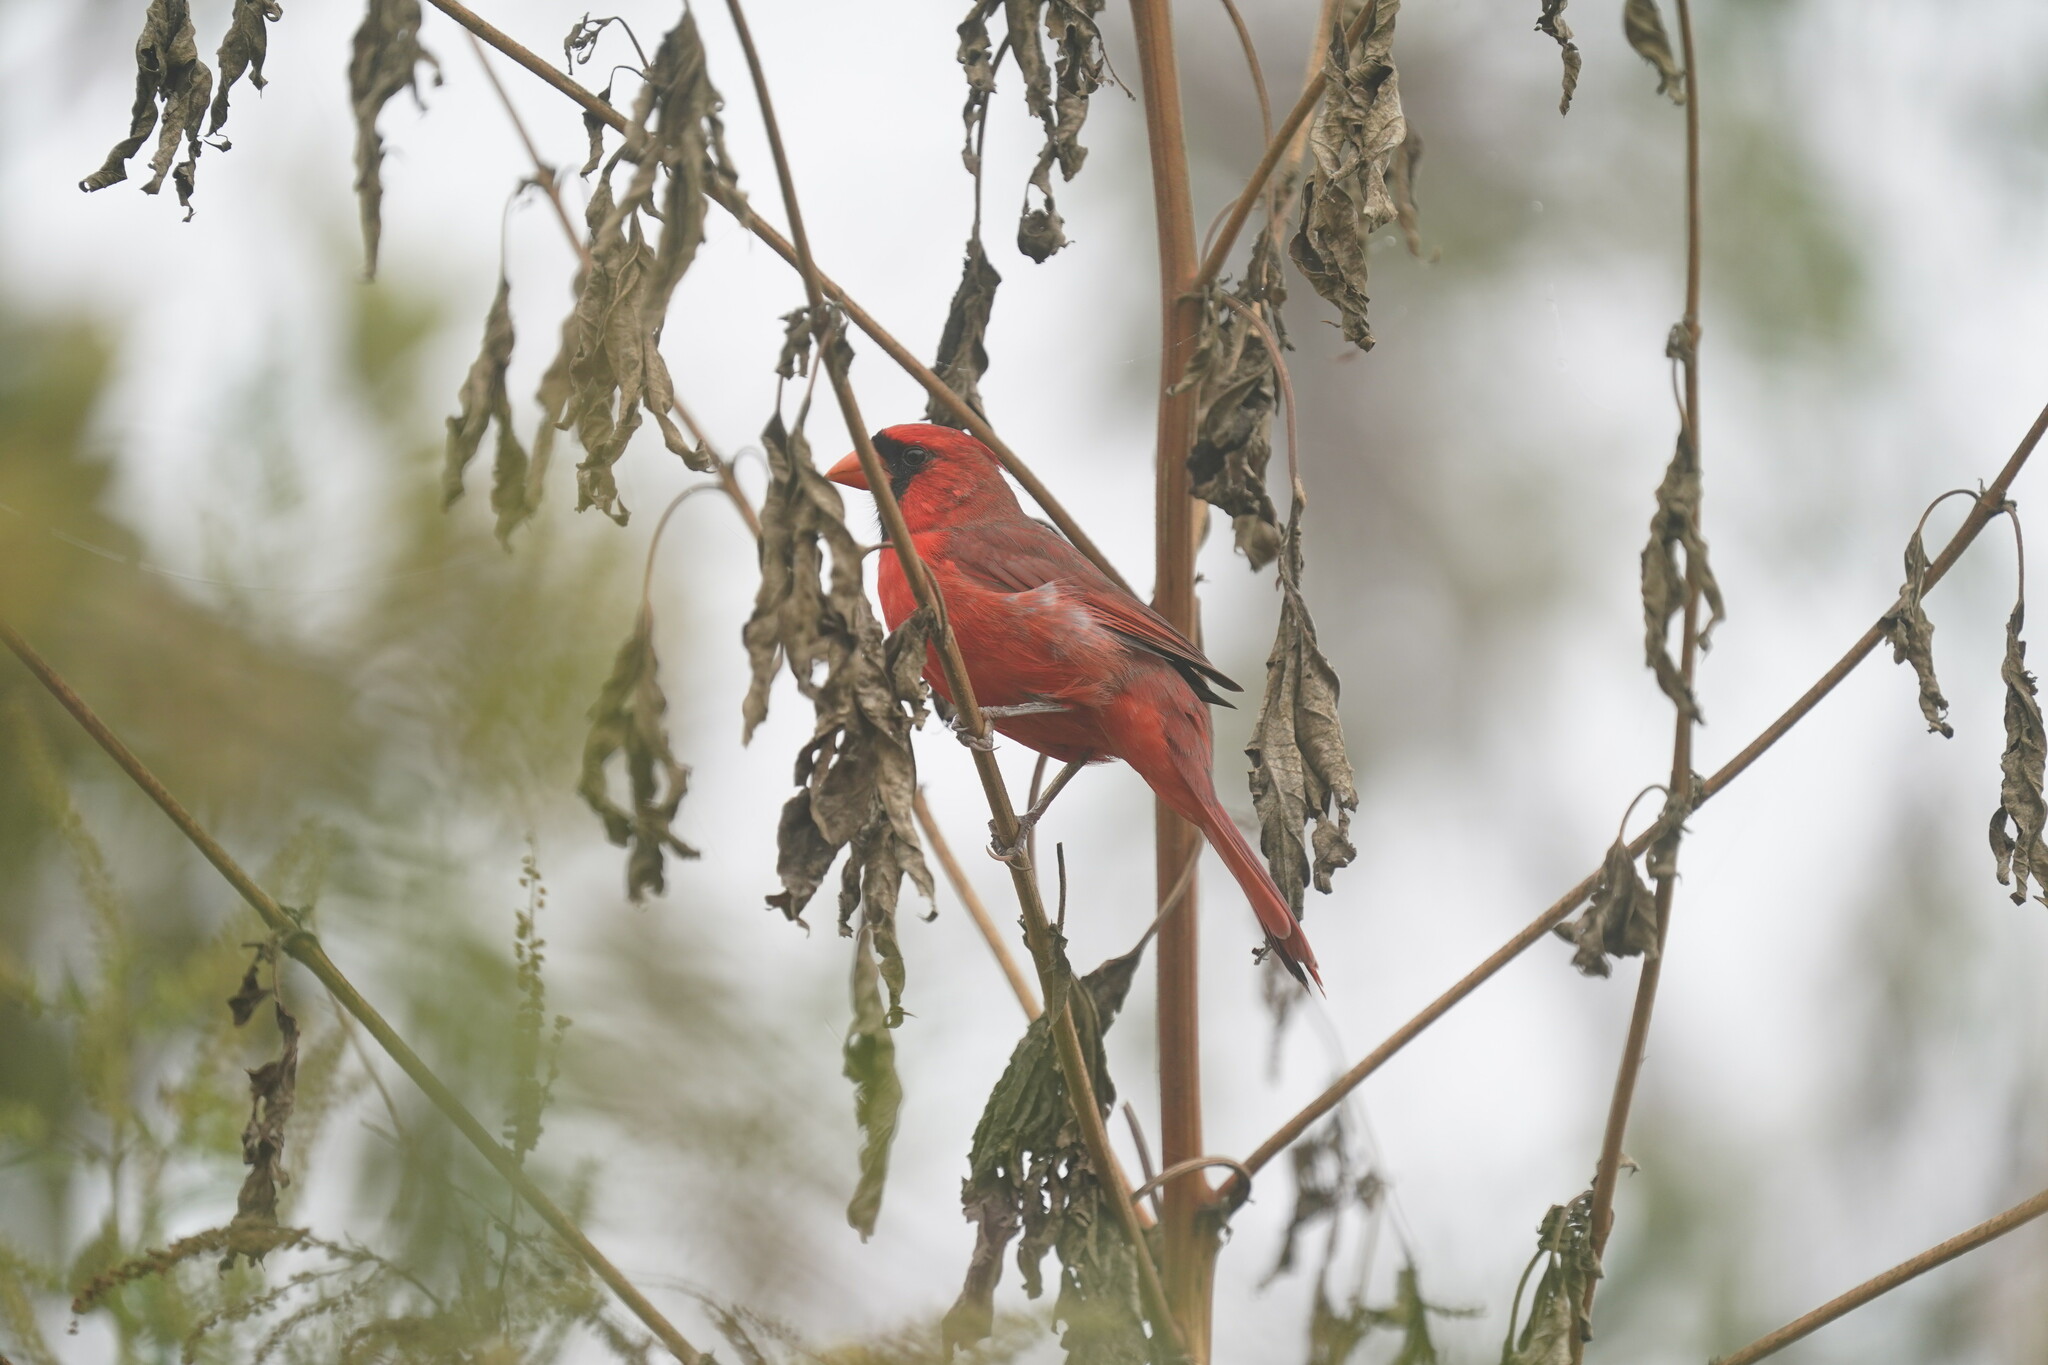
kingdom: Animalia
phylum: Chordata
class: Aves
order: Passeriformes
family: Cardinalidae
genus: Cardinalis
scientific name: Cardinalis cardinalis
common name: Northern cardinal
